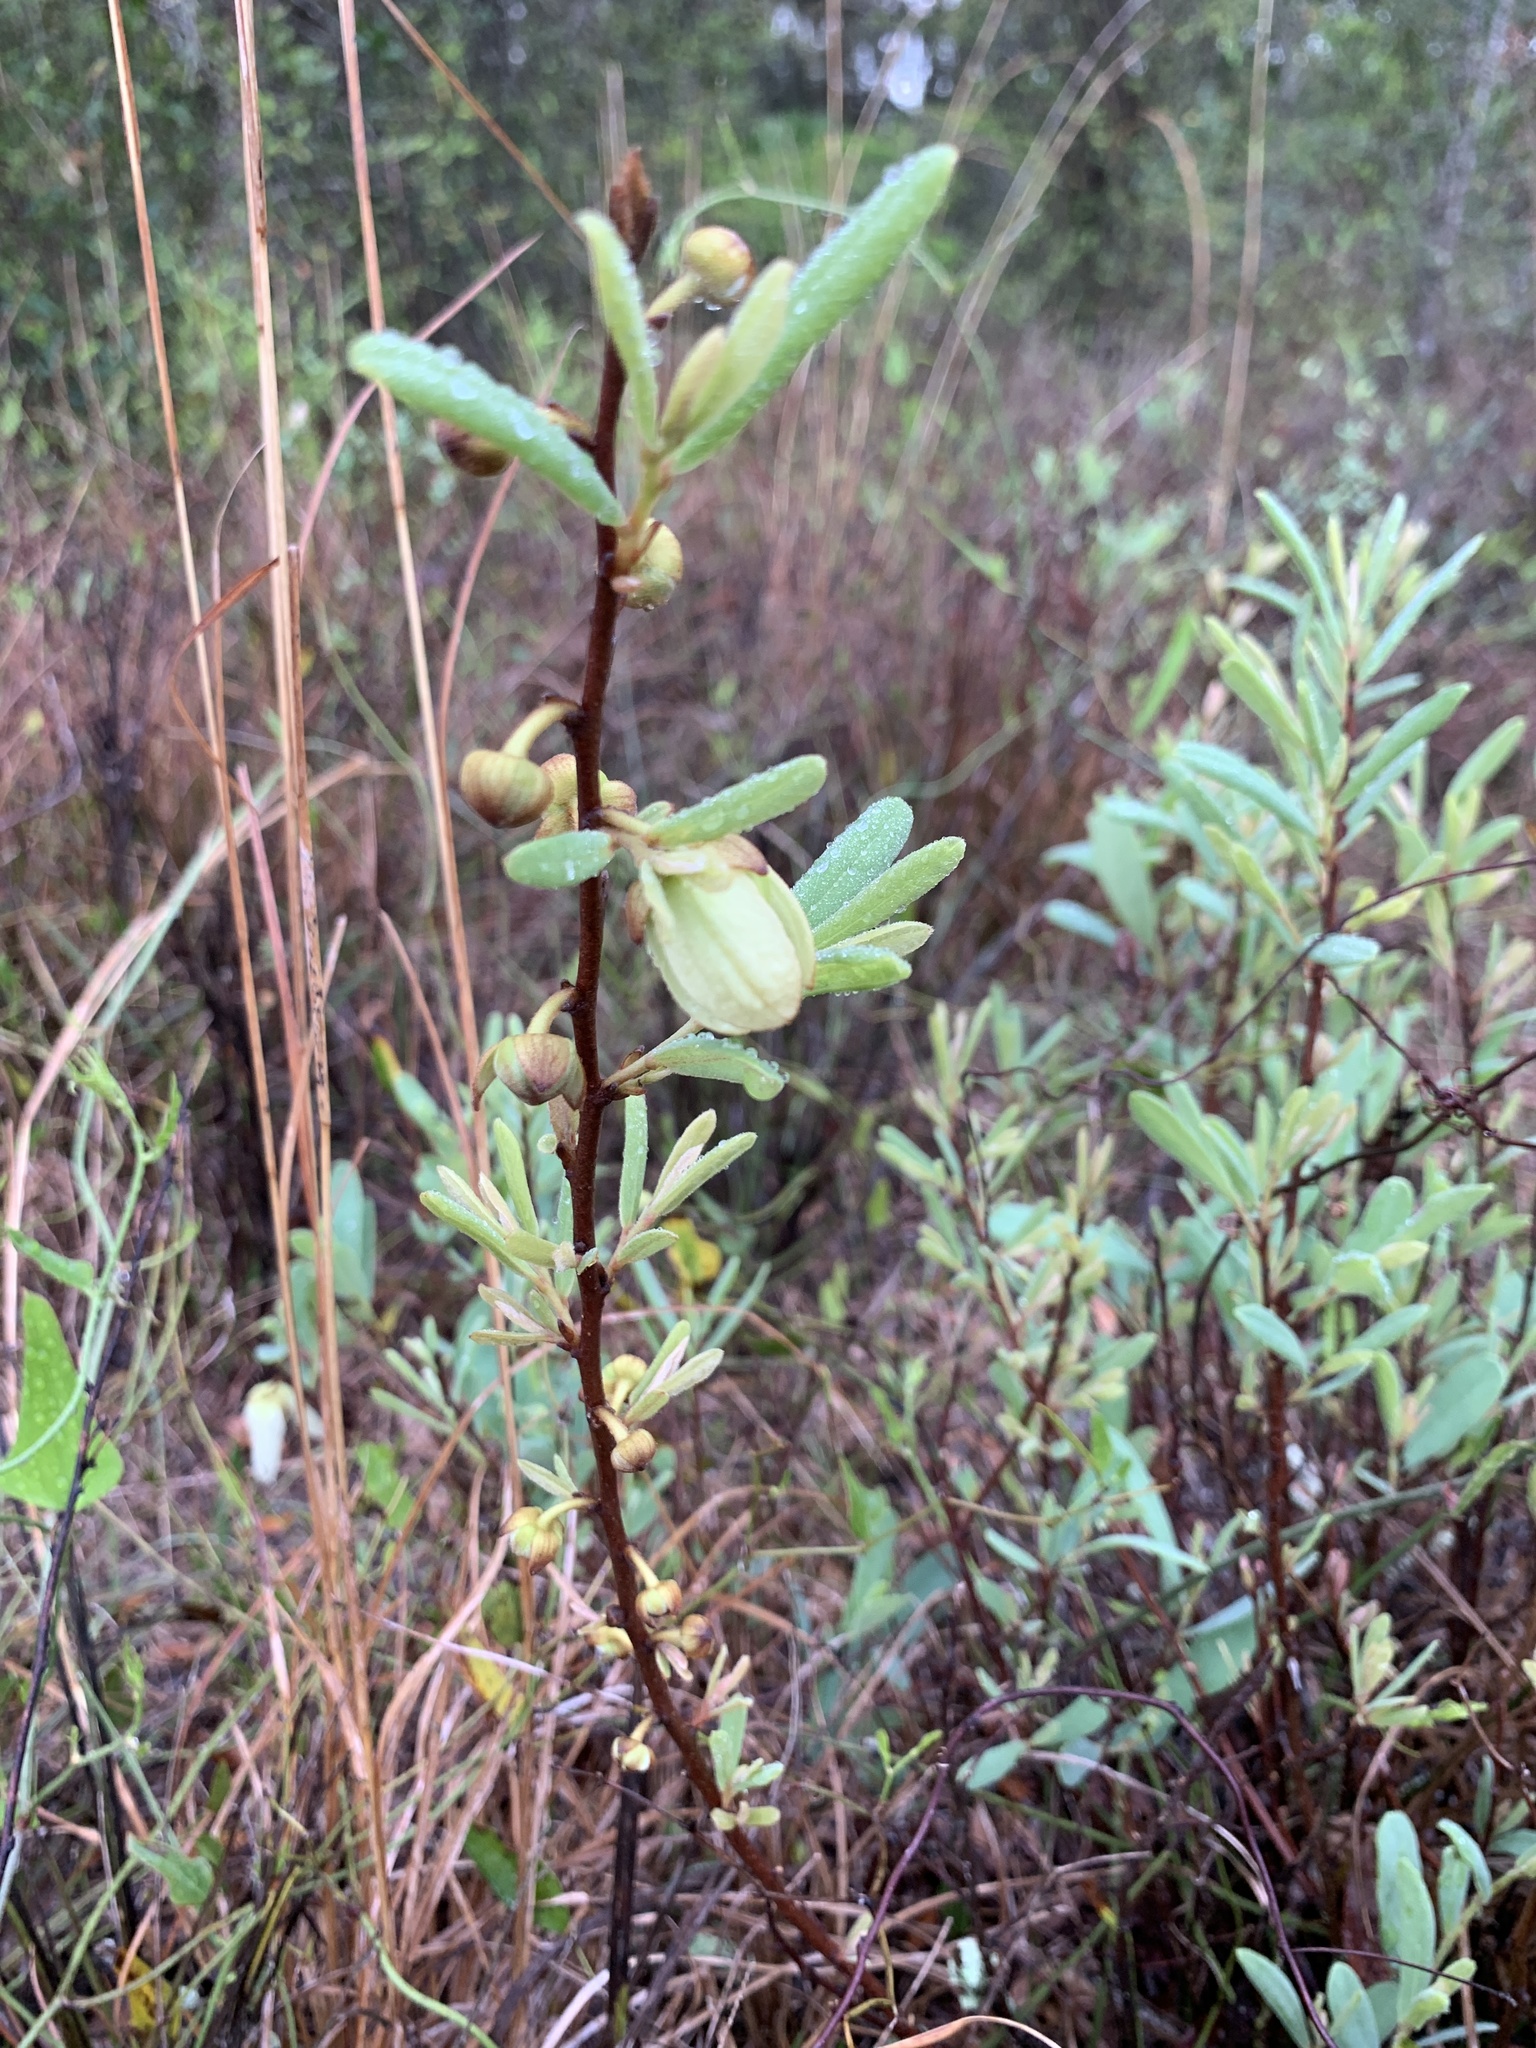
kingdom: Plantae
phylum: Tracheophyta
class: Magnoliopsida
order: Magnoliales
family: Annonaceae
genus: Asimina
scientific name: Asimina reticulata
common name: Flag pawpaw
